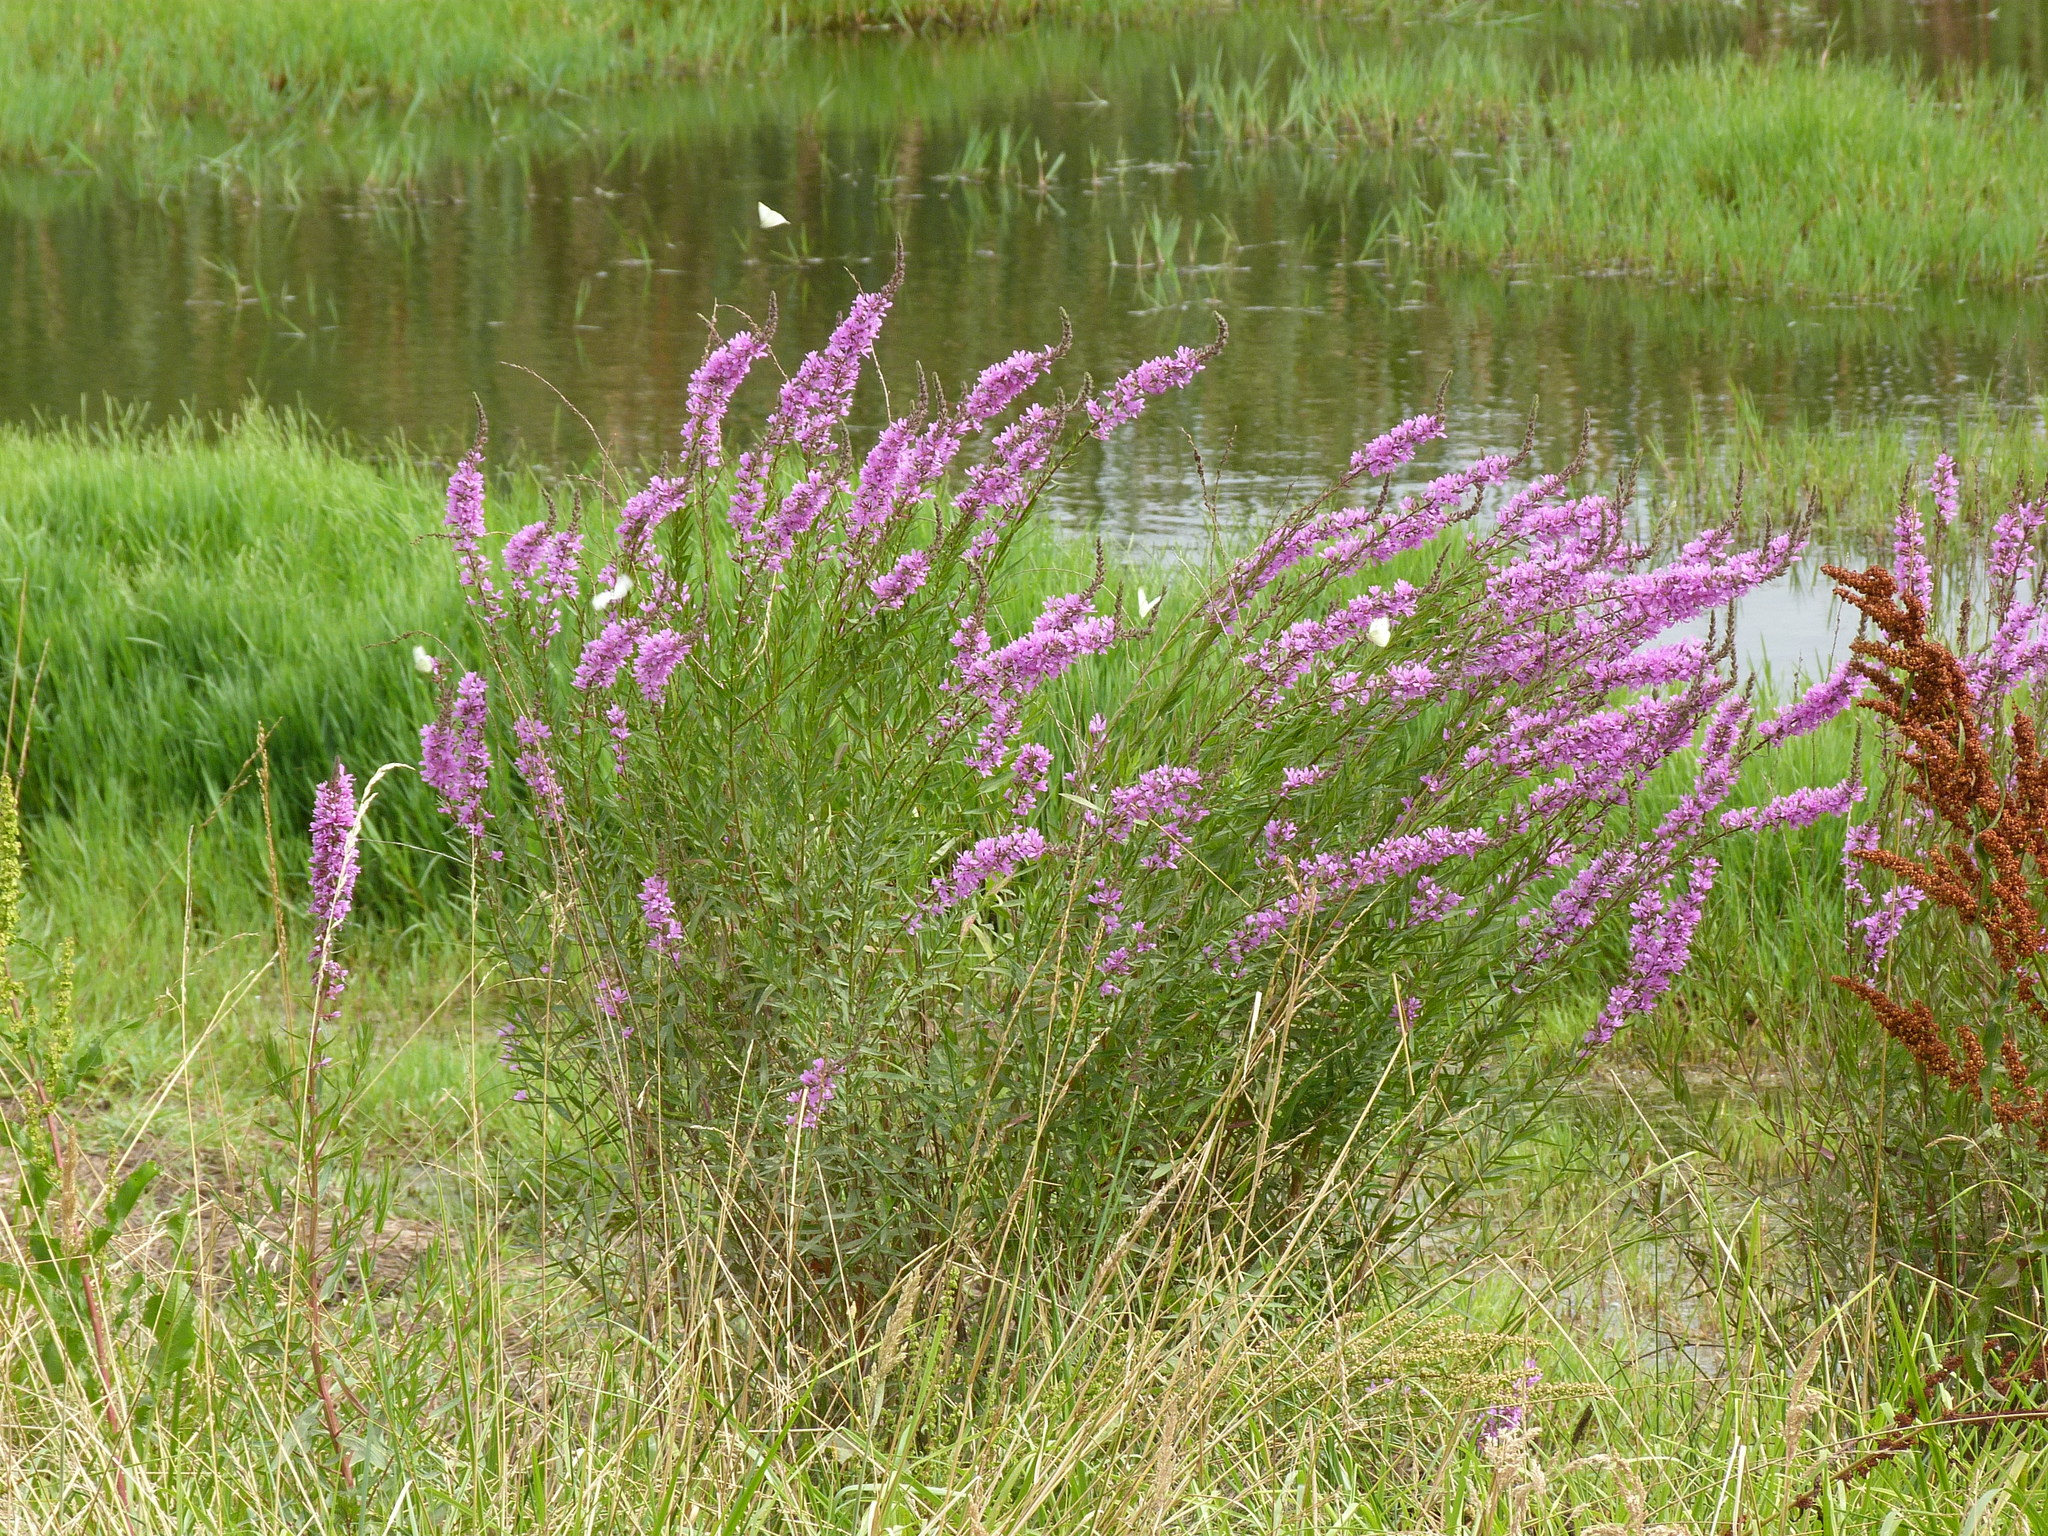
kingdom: Plantae
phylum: Tracheophyta
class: Magnoliopsida
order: Myrtales
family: Lythraceae
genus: Lythrum
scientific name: Lythrum salicaria
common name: Purple loosestrife
